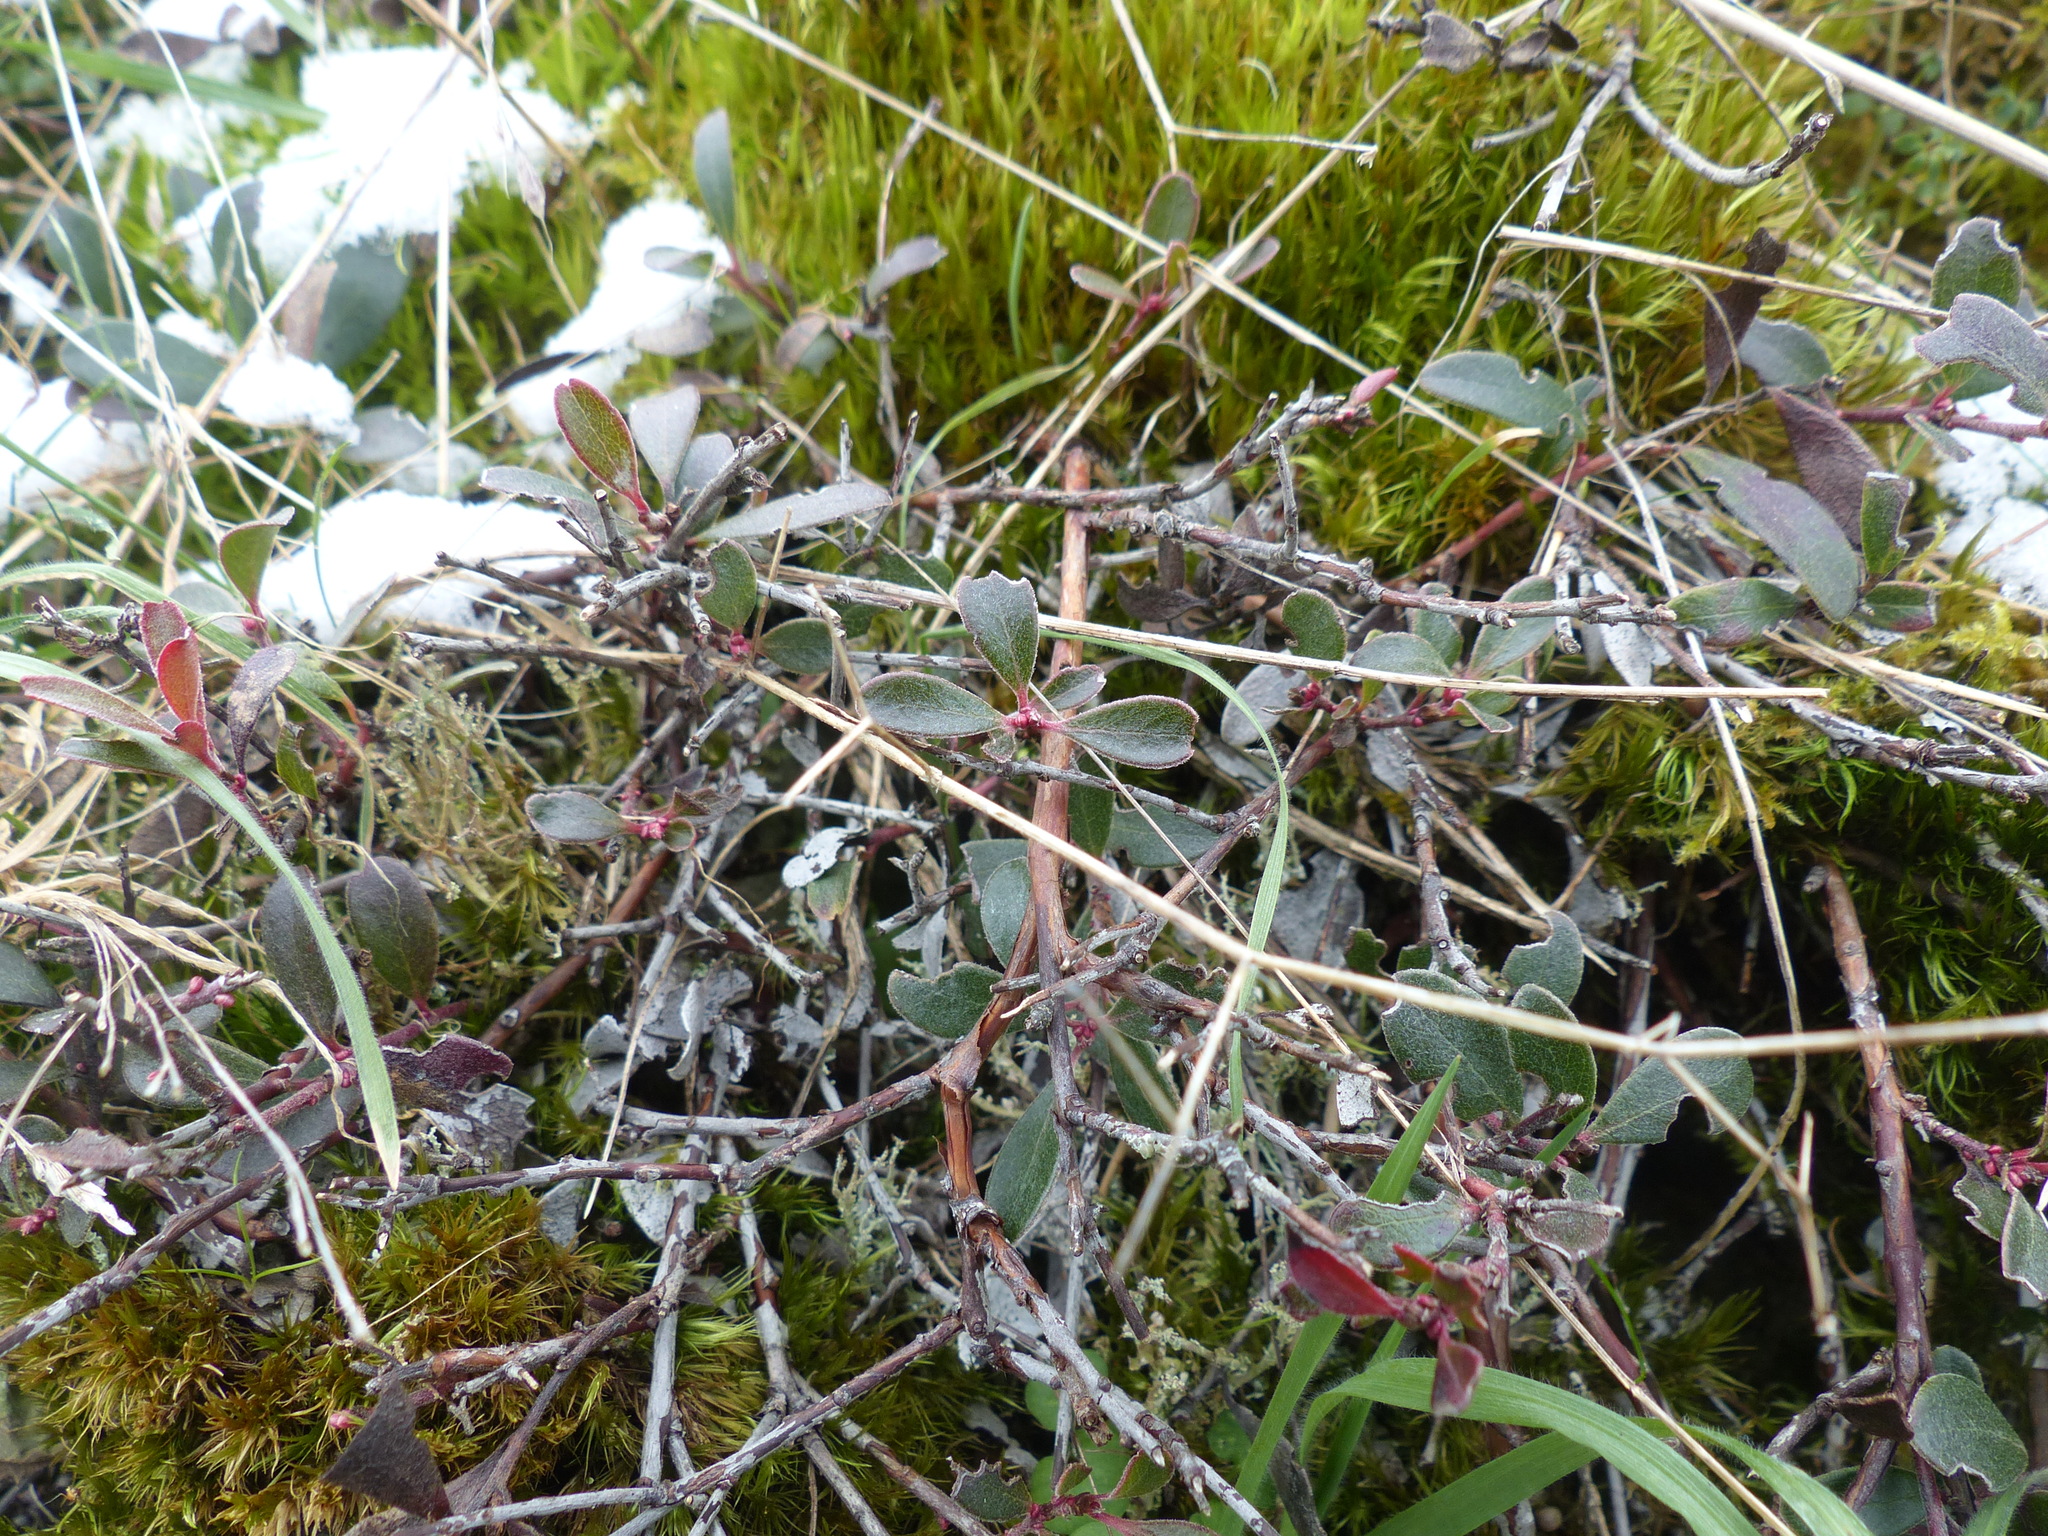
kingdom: Plantae
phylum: Tracheophyta
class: Magnoliopsida
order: Ericales
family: Ericaceae
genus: Arctostaphylos
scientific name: Arctostaphylos uva-ursi
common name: Bearberry
